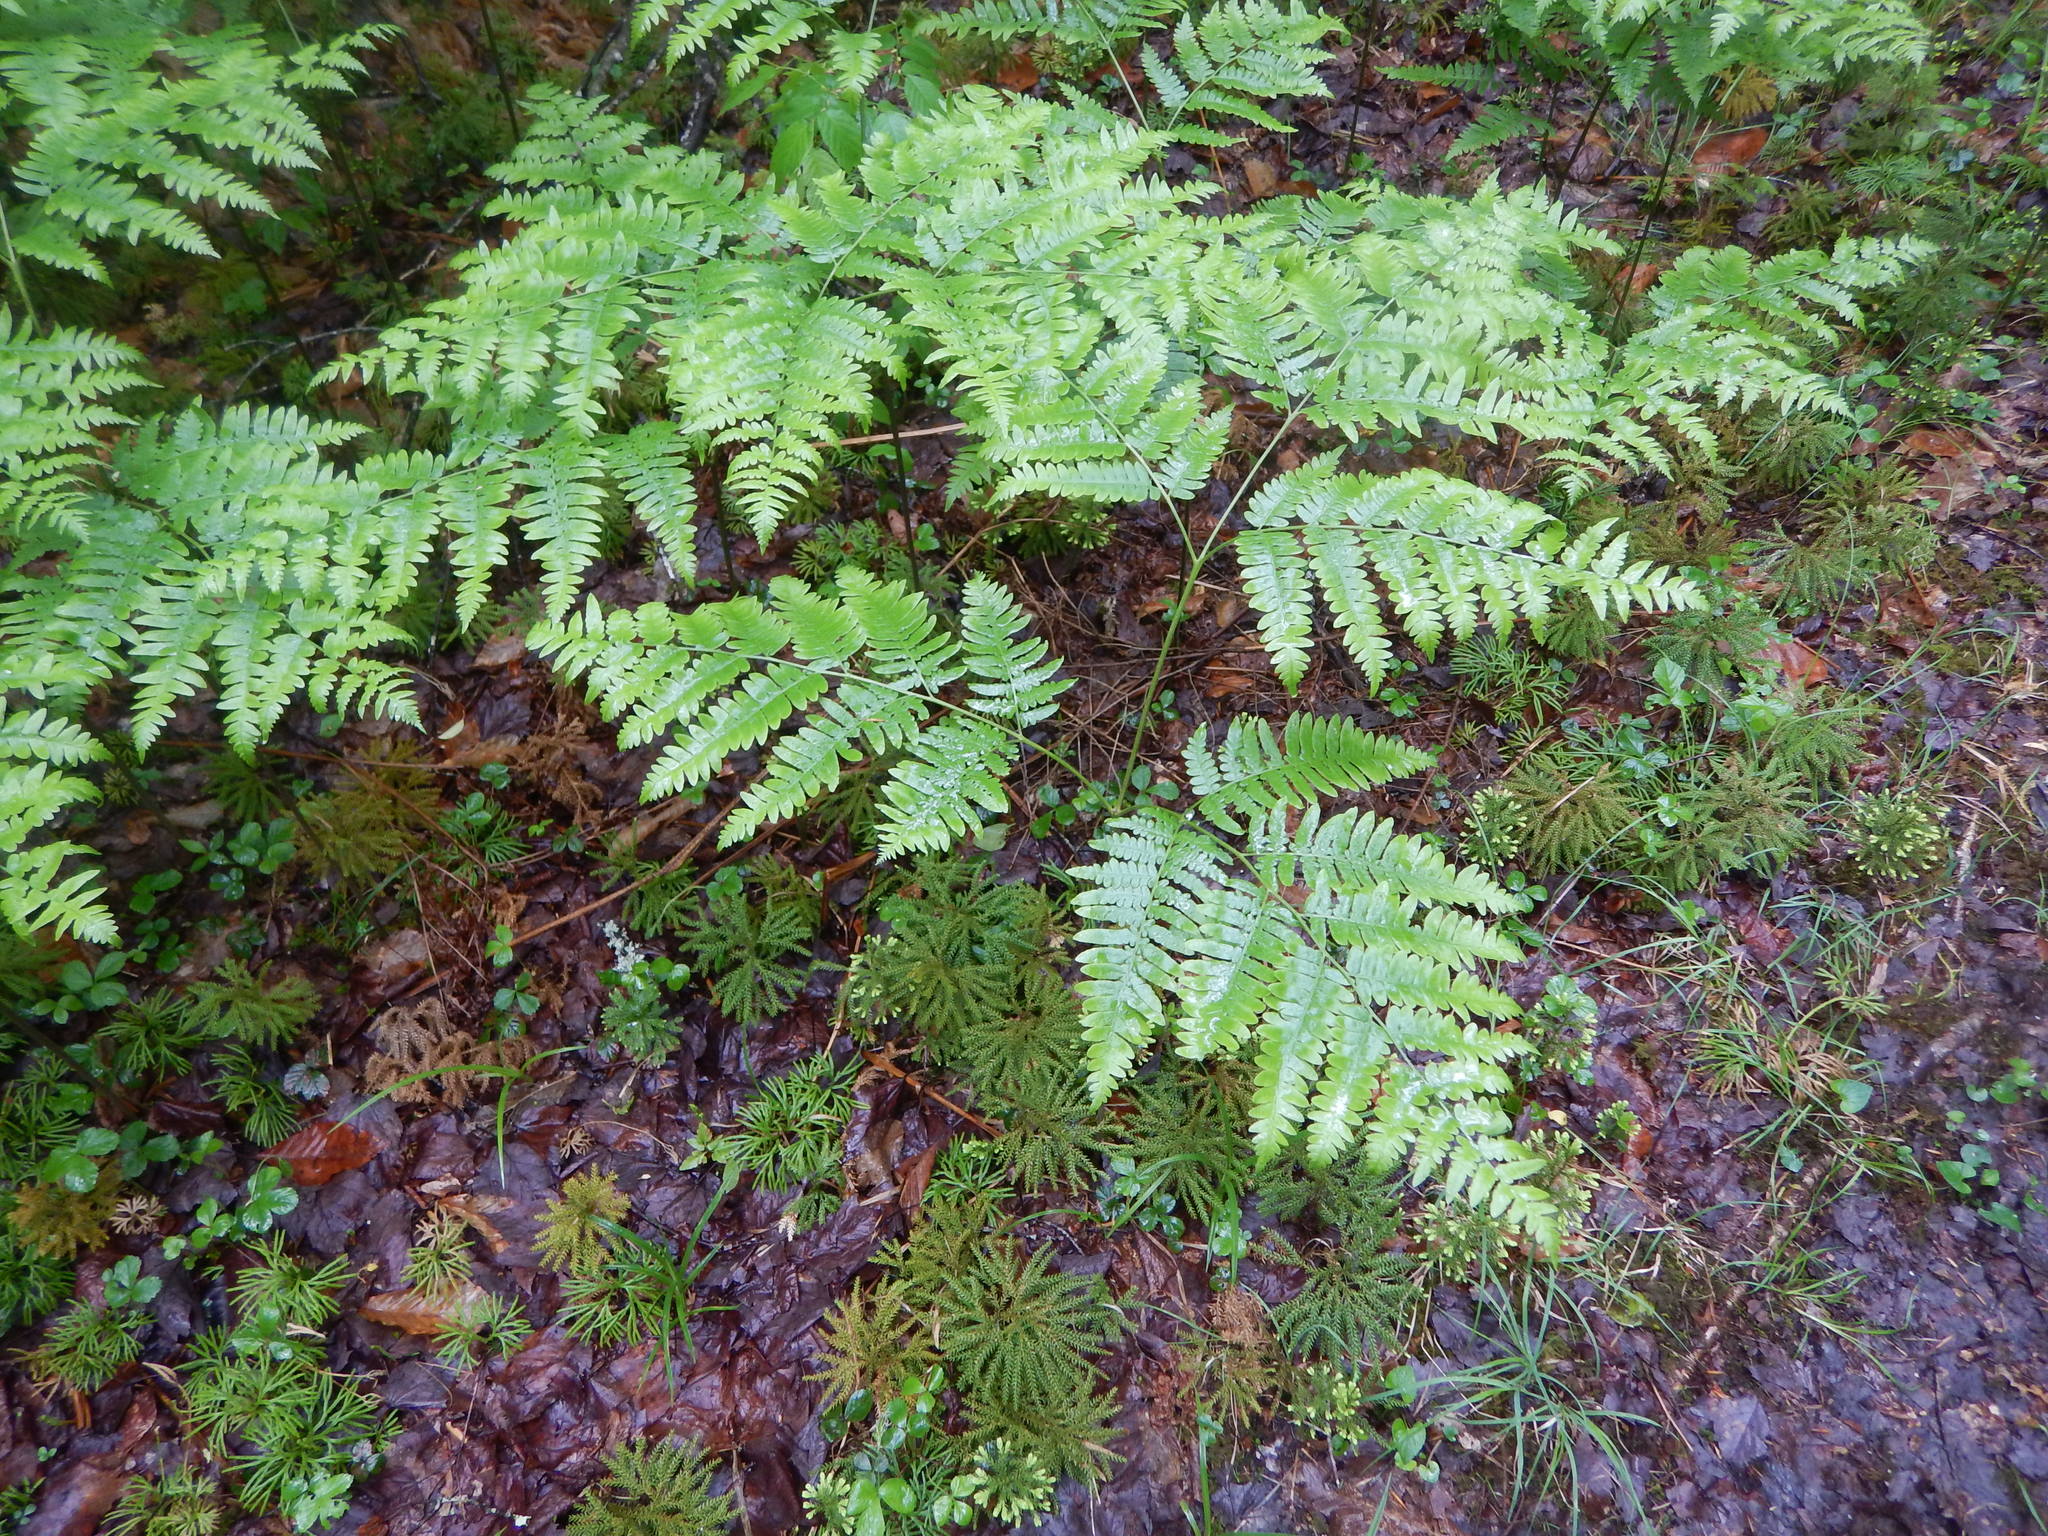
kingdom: Plantae
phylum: Tracheophyta
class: Polypodiopsida
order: Polypodiales
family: Dennstaedtiaceae
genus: Pteridium
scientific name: Pteridium aquilinum
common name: Bracken
